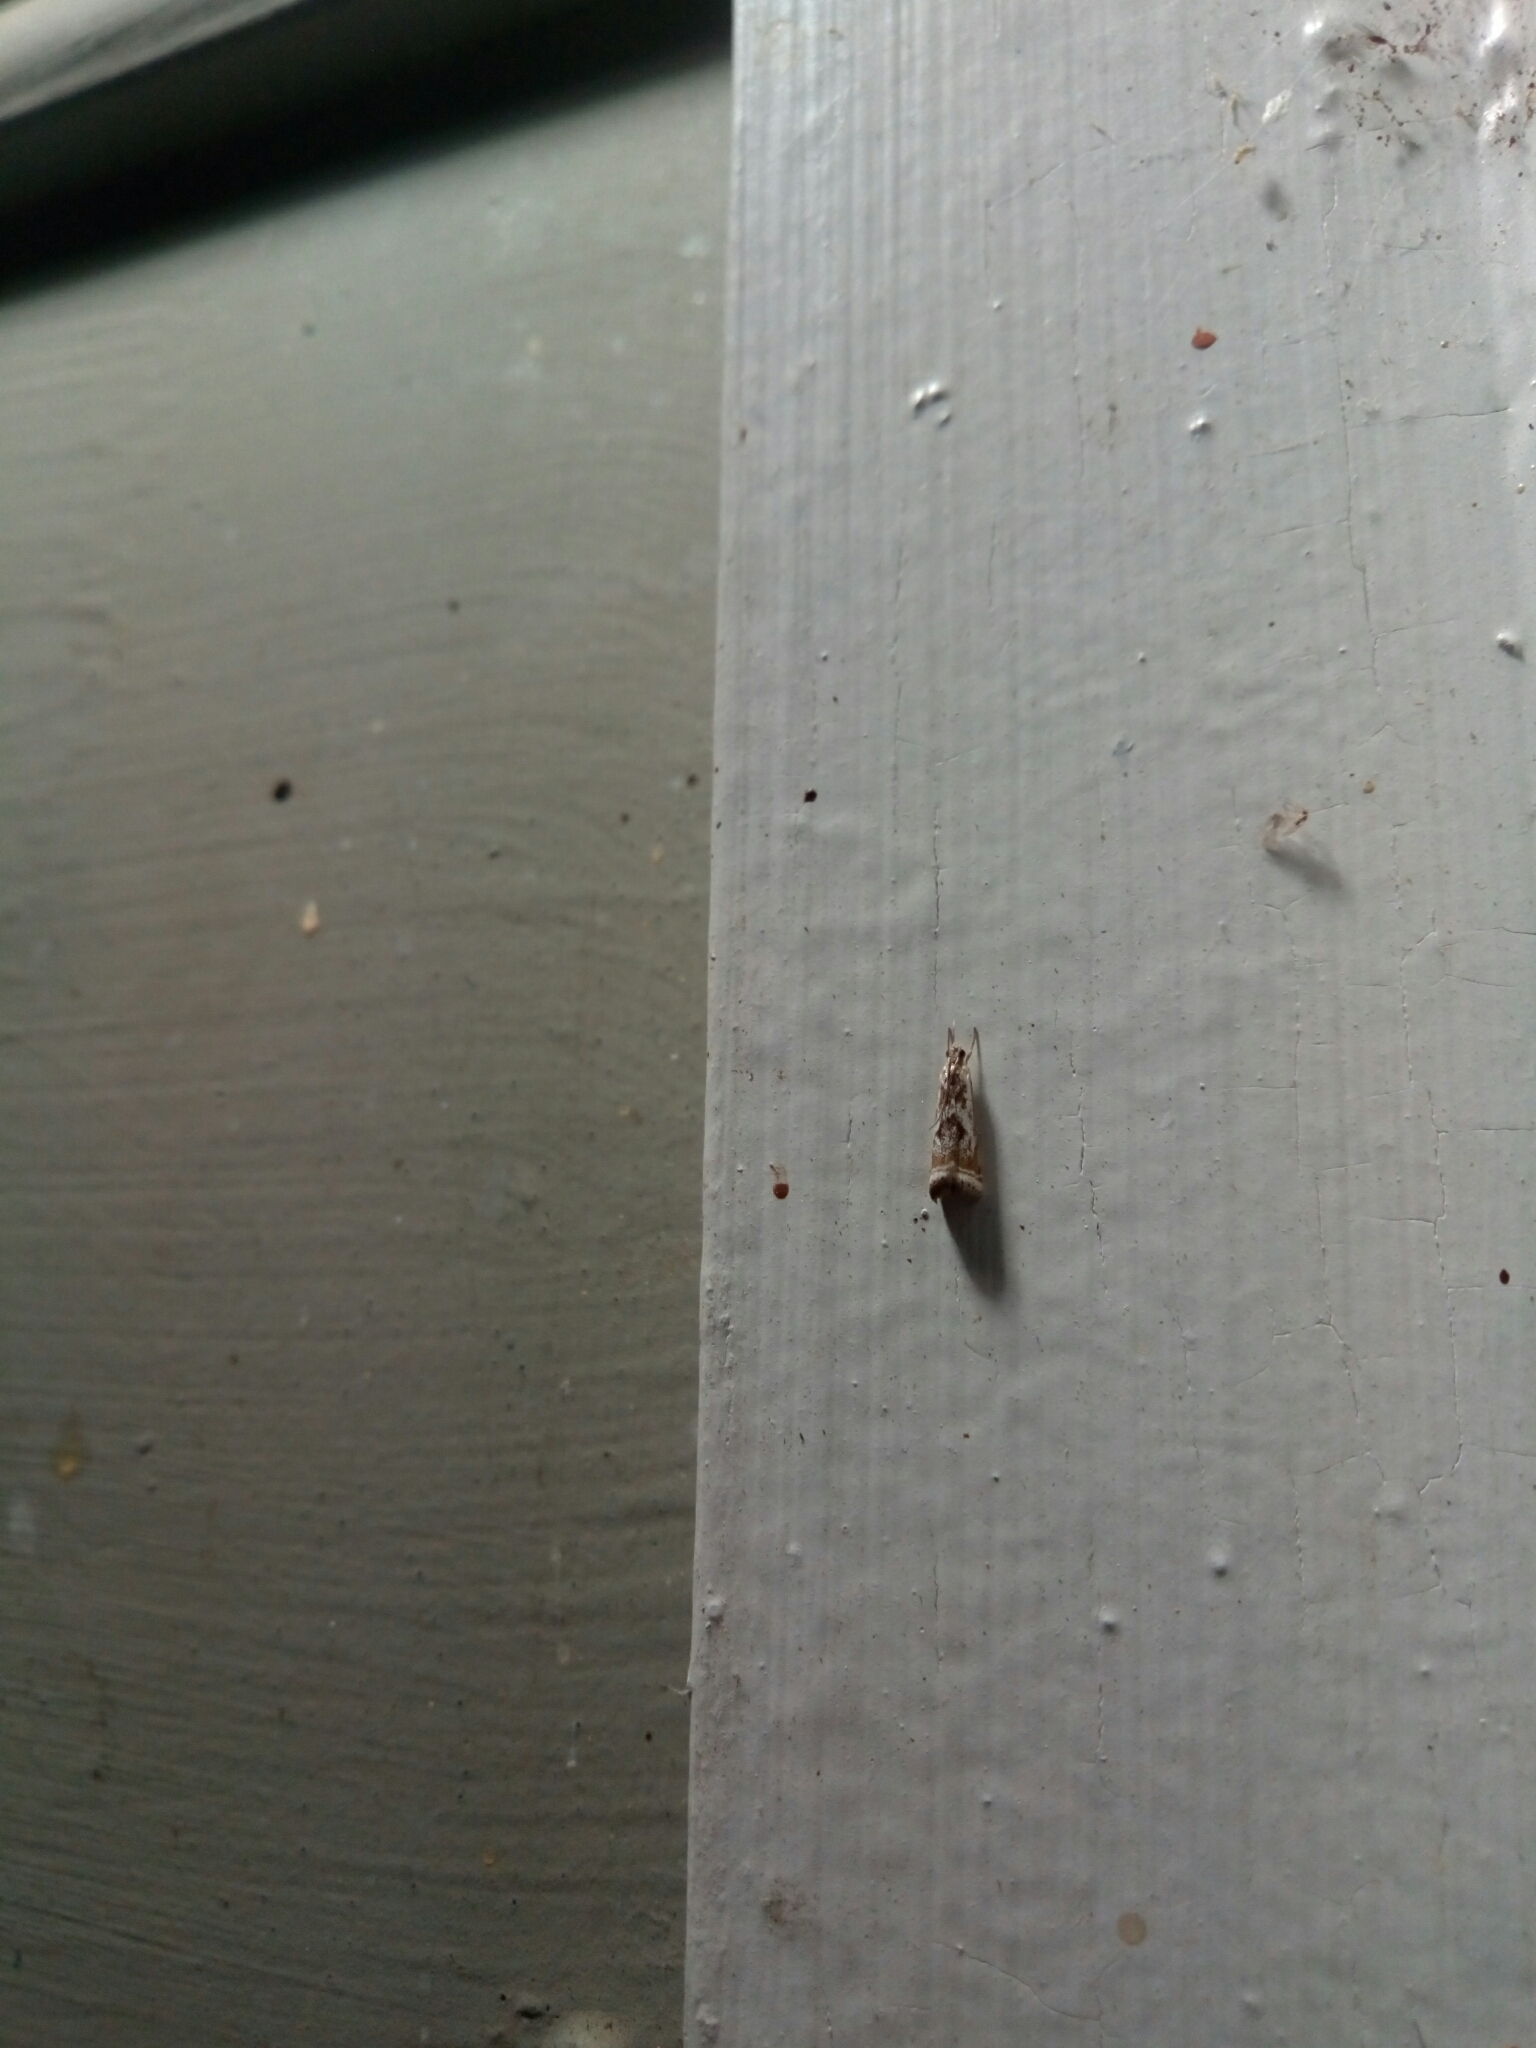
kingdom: Animalia
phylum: Arthropoda
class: Insecta
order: Lepidoptera
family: Crambidae
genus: Microcrambus
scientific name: Microcrambus elegans
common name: Elegant grass-veneer
